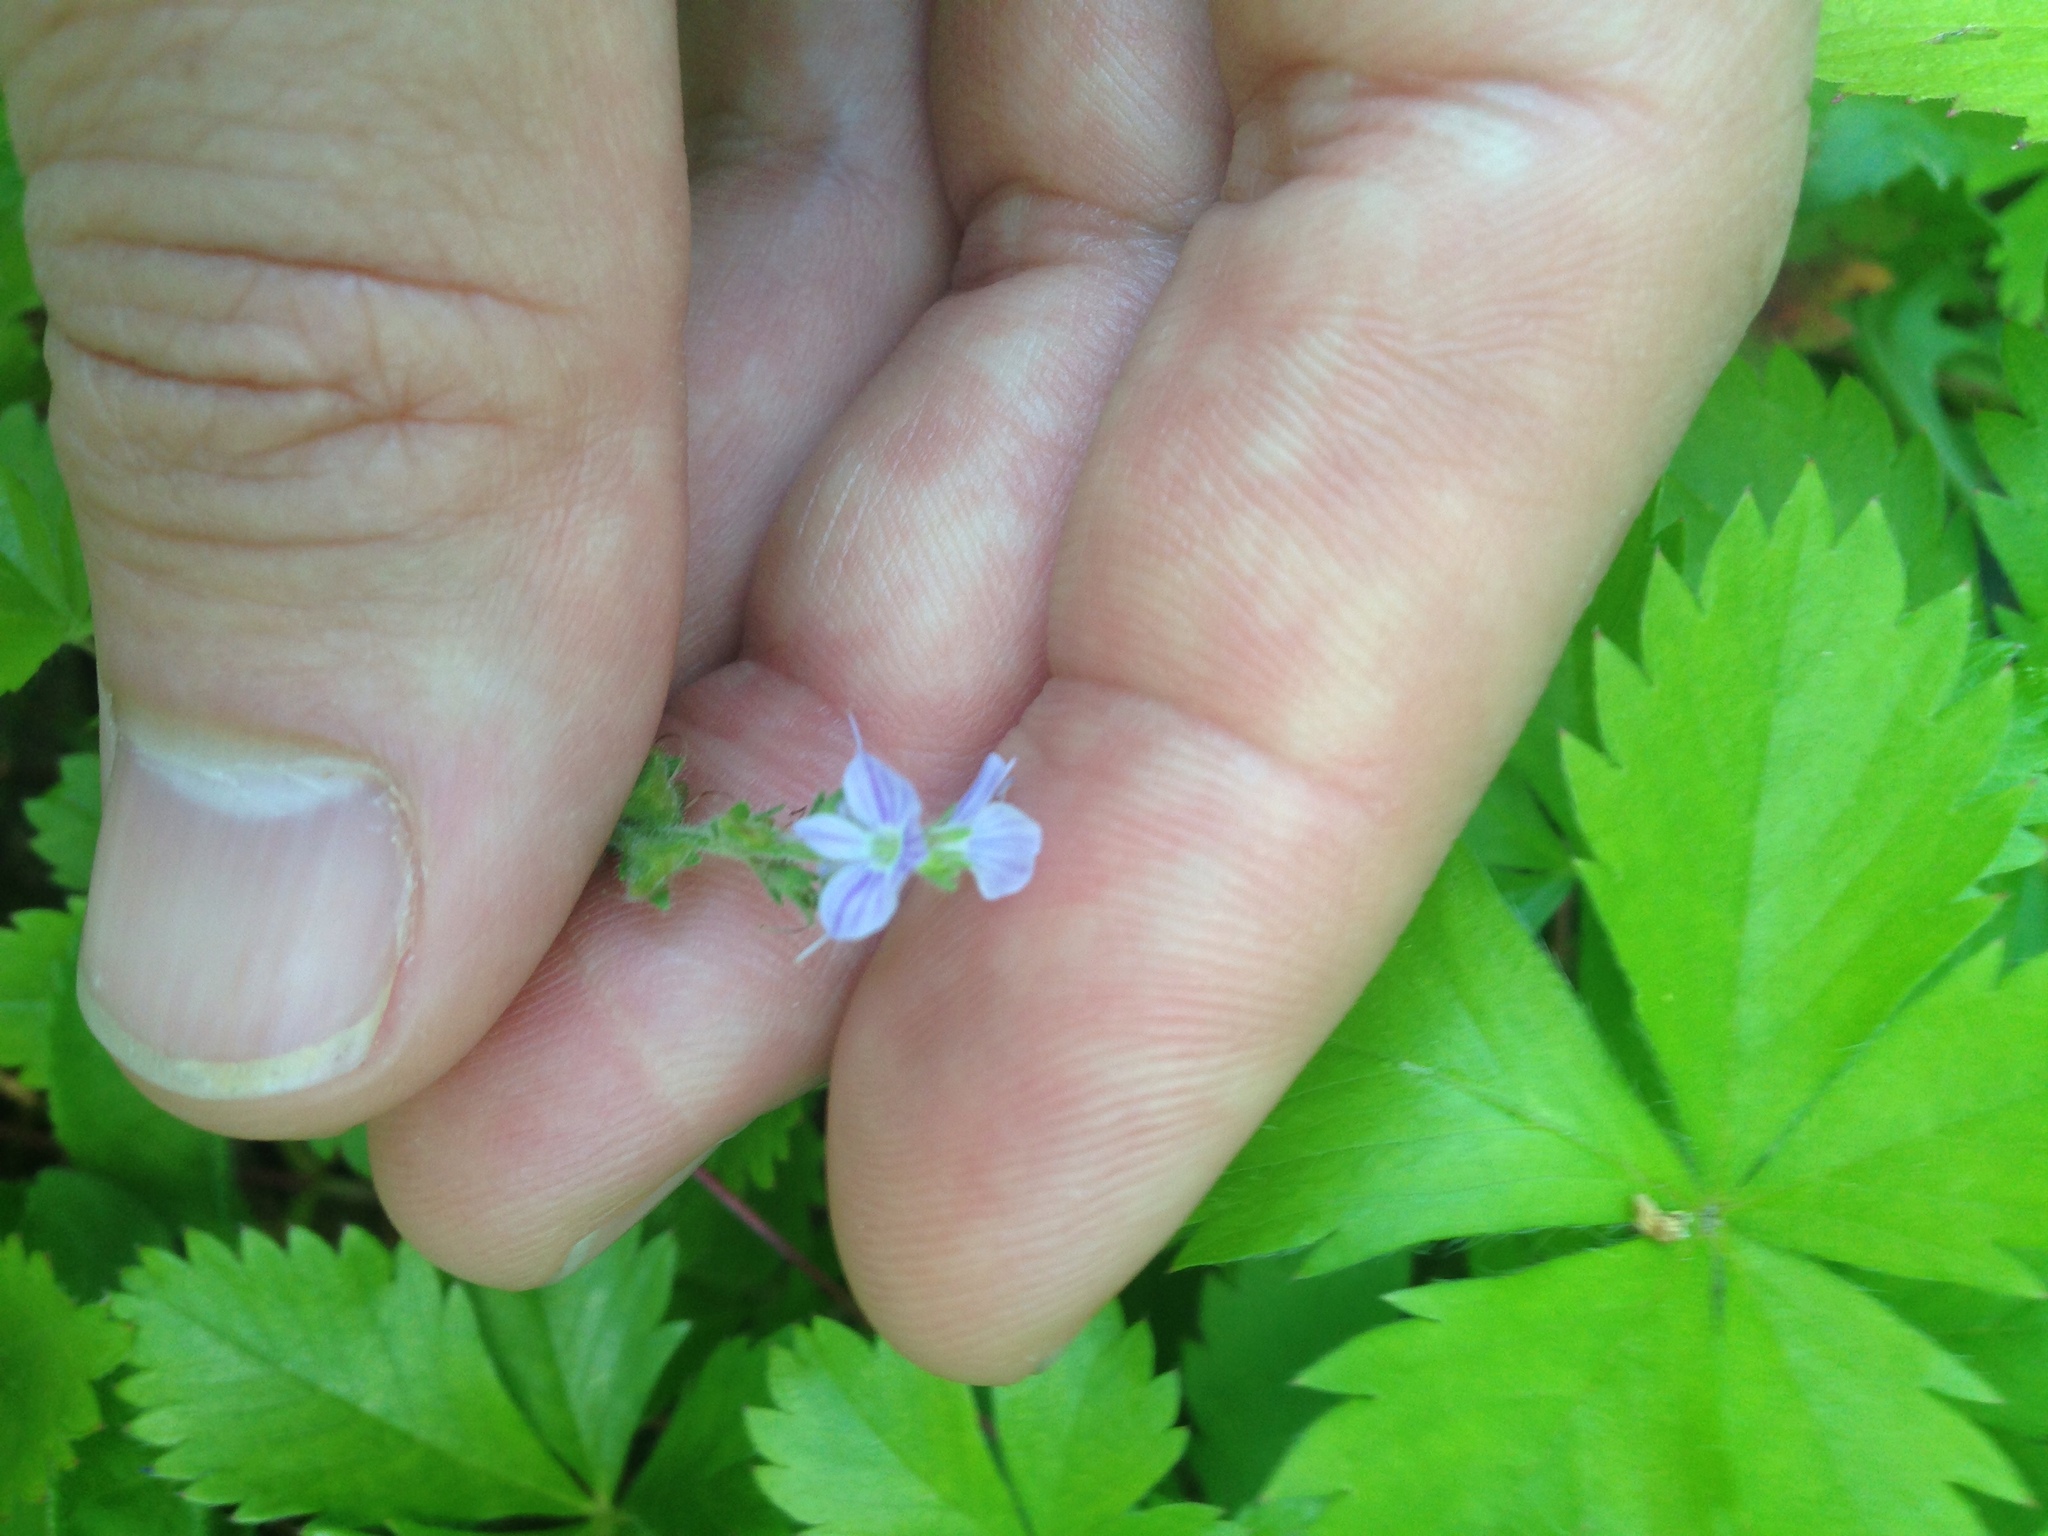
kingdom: Plantae
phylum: Tracheophyta
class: Magnoliopsida
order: Lamiales
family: Plantaginaceae
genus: Veronica
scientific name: Veronica officinalis
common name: Common speedwell
